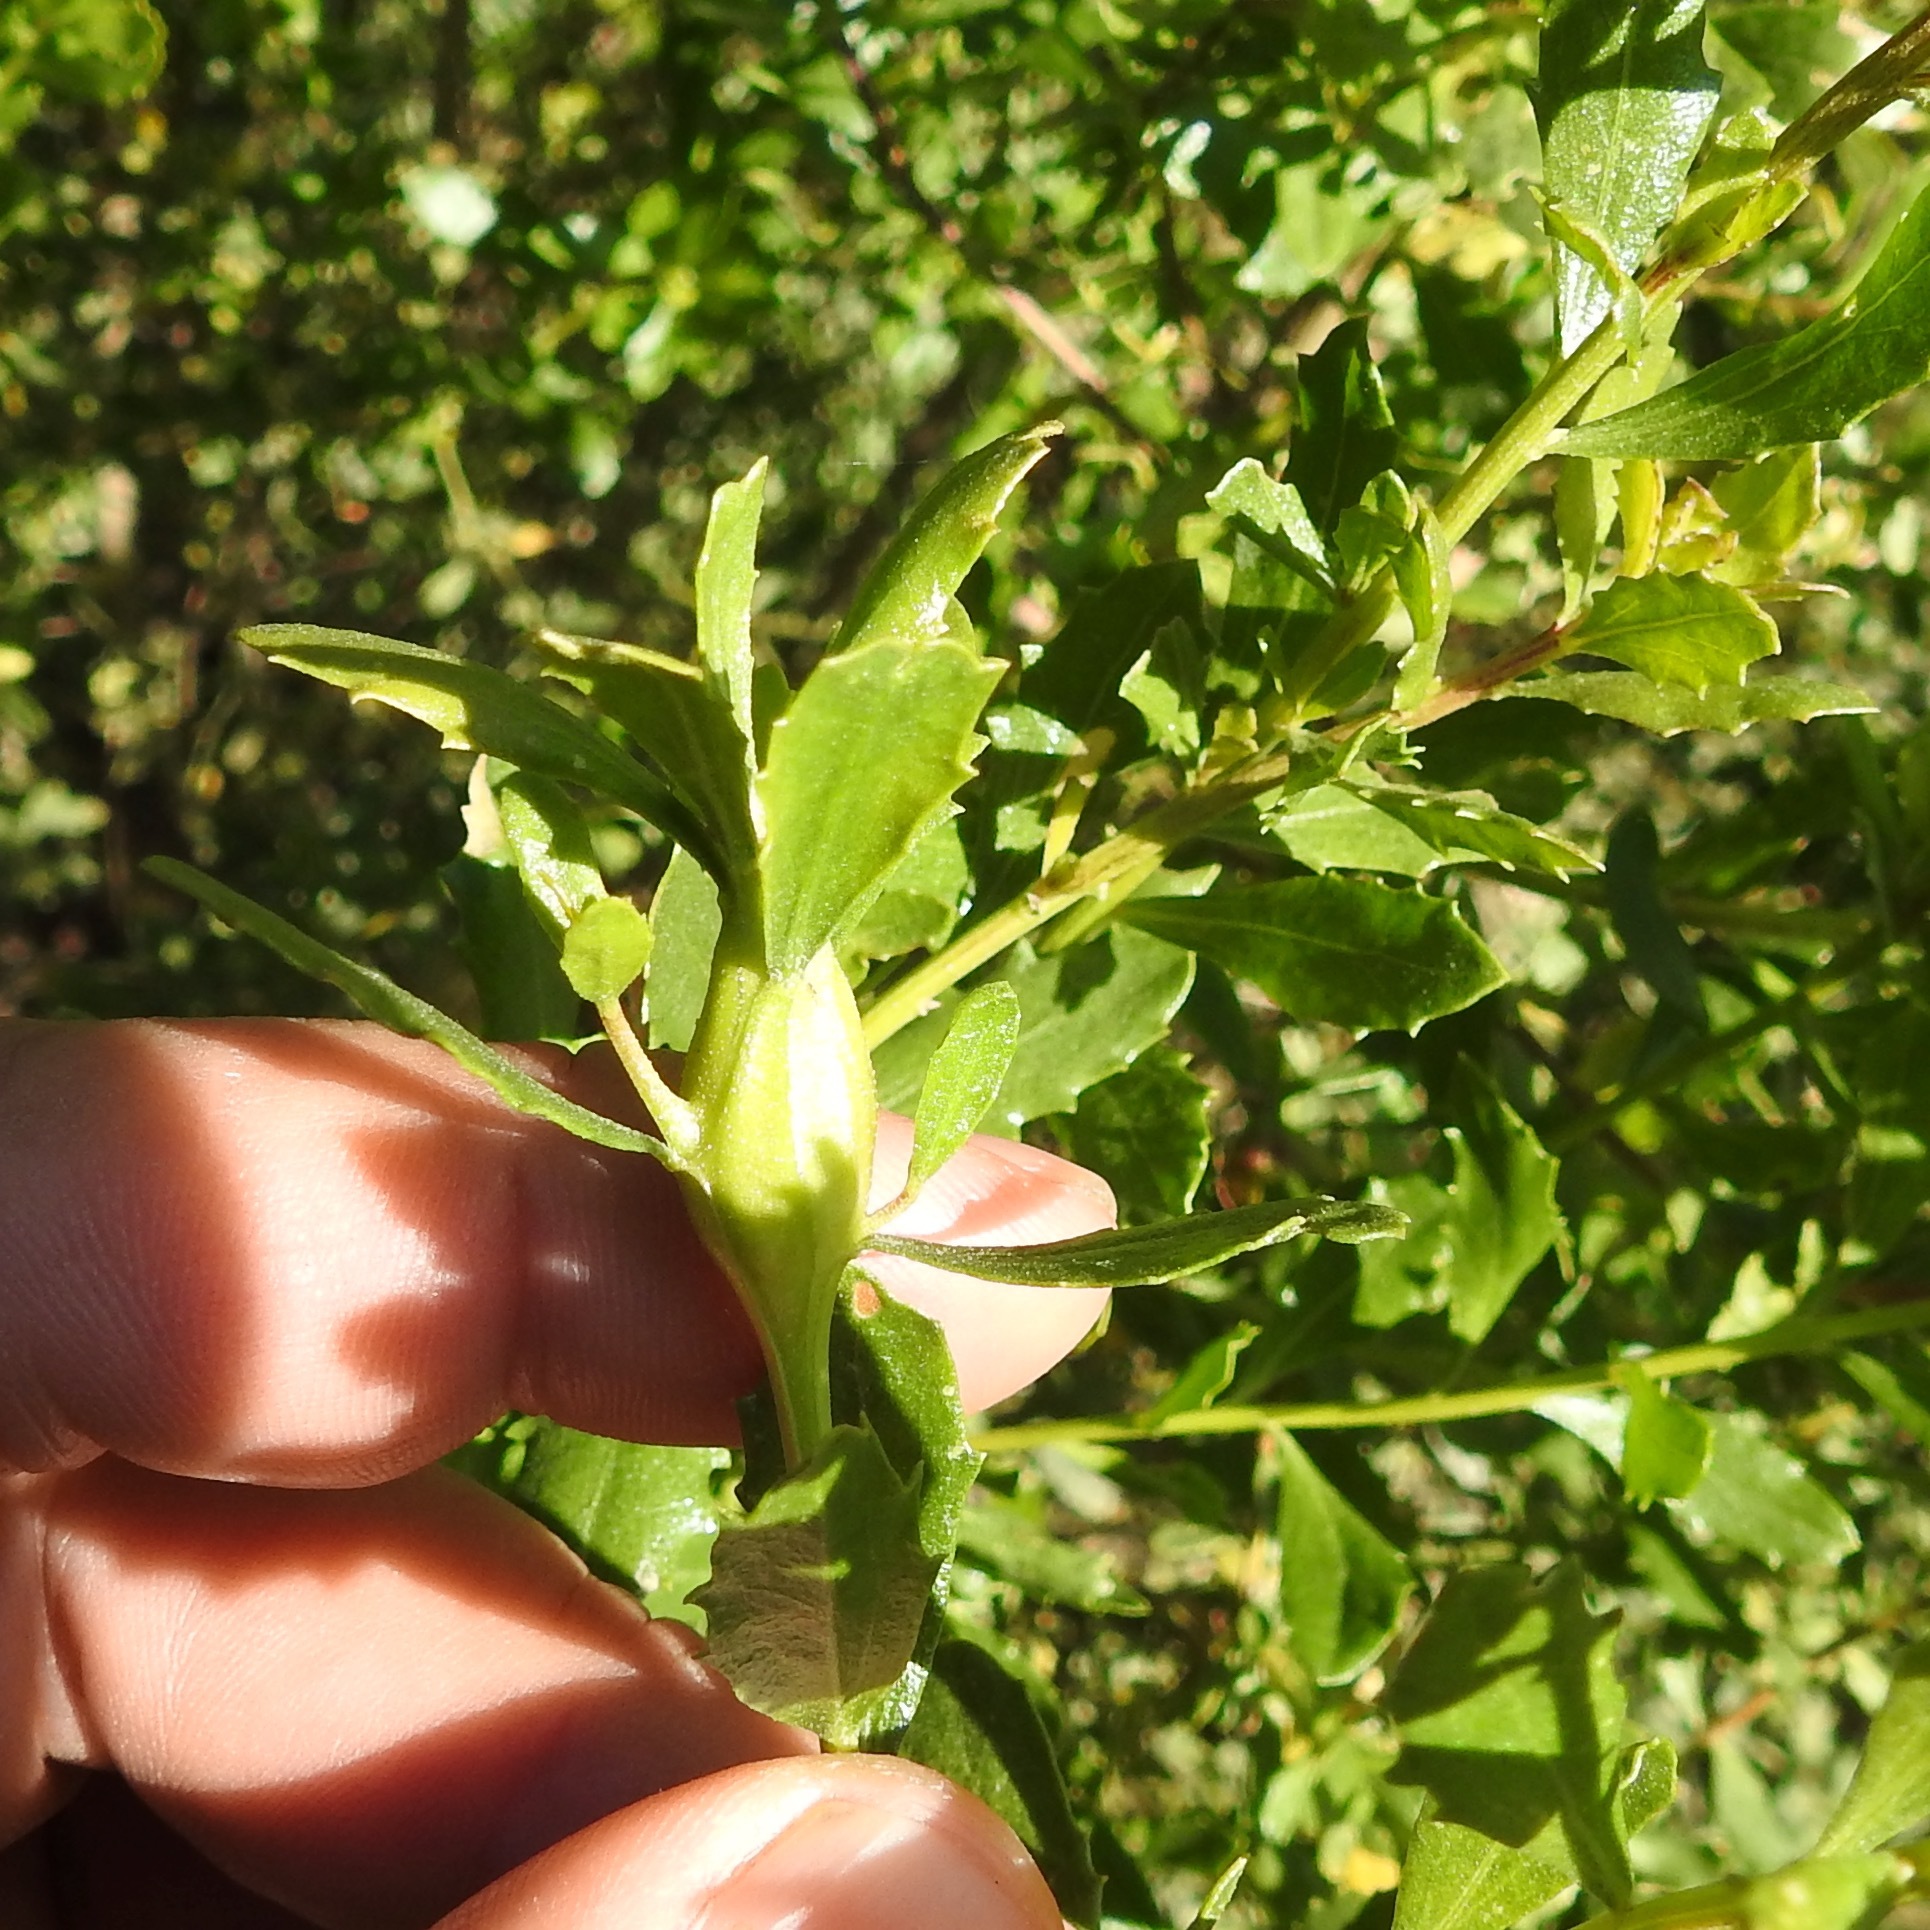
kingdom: Plantae
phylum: Tracheophyta
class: Magnoliopsida
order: Asterales
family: Asteraceae
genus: Baccharis
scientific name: Baccharis pilularis
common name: Coyotebrush
